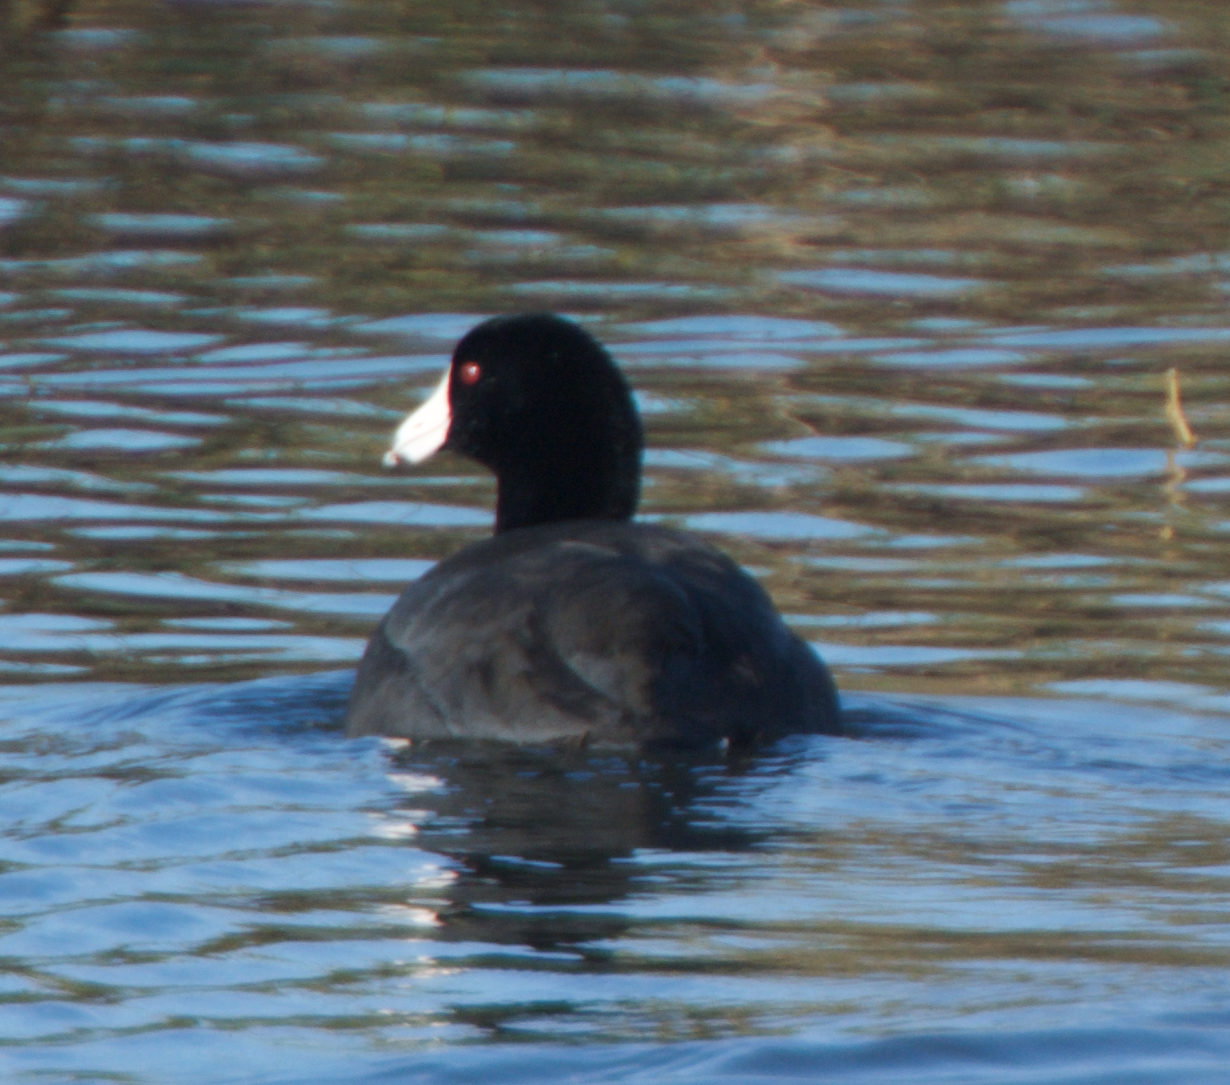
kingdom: Animalia
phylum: Chordata
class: Aves
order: Gruiformes
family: Rallidae
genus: Fulica
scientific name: Fulica americana
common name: American coot
